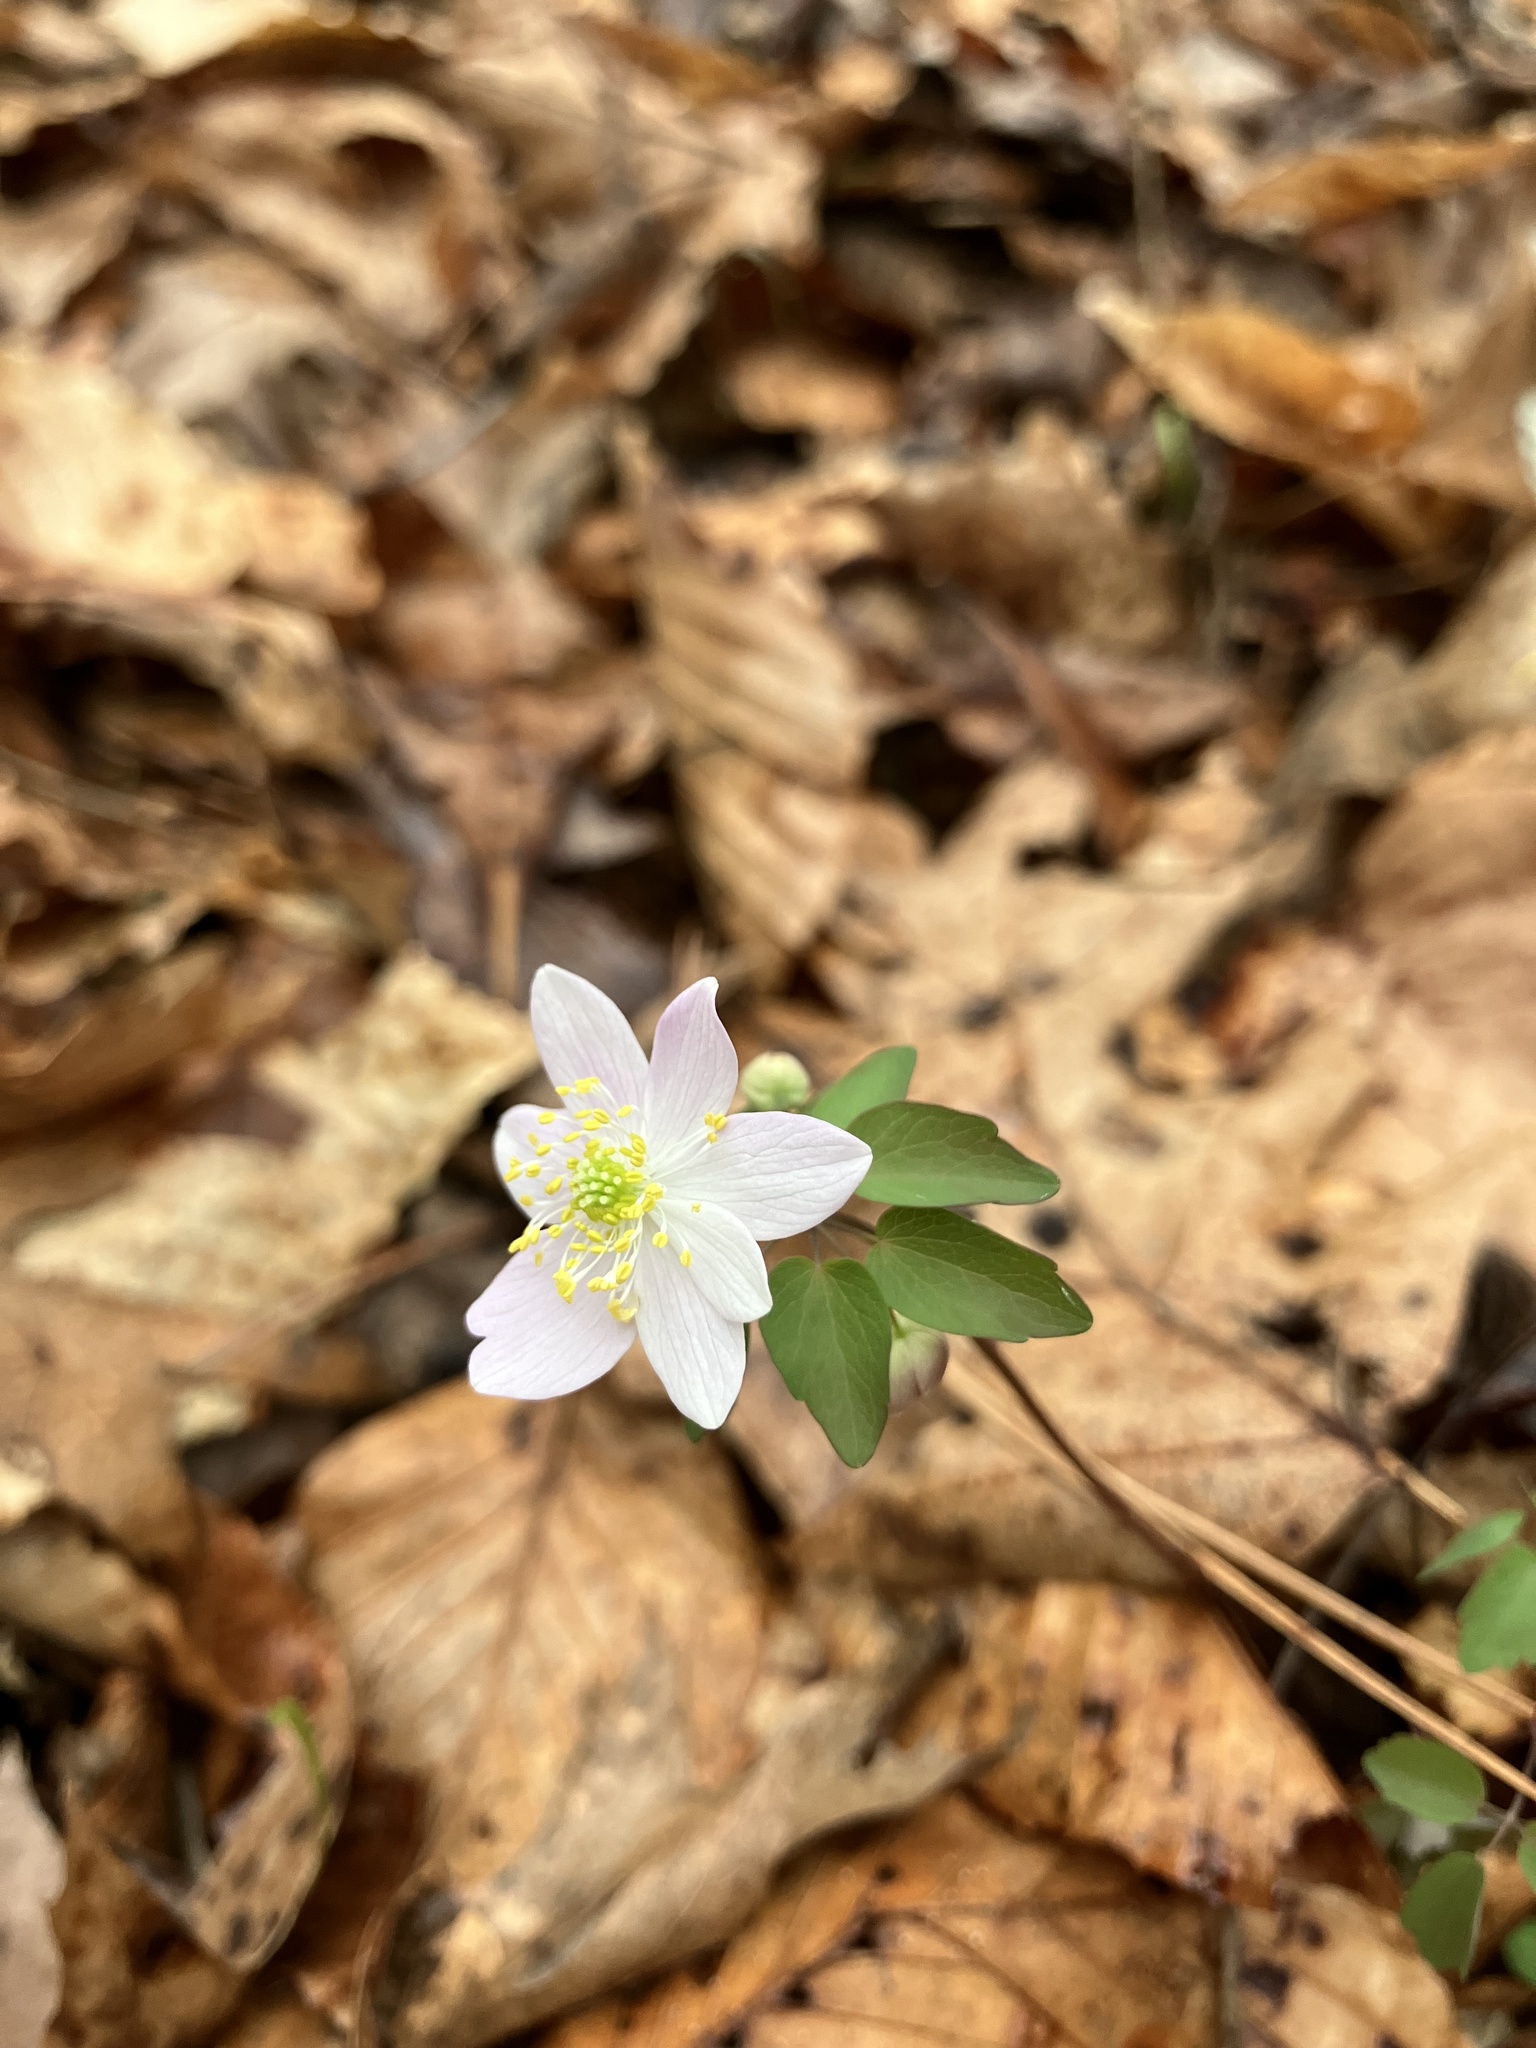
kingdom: Plantae
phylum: Tracheophyta
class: Magnoliopsida
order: Ranunculales
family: Ranunculaceae
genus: Thalictrum
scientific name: Thalictrum thalictroides
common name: Rue-anemone
